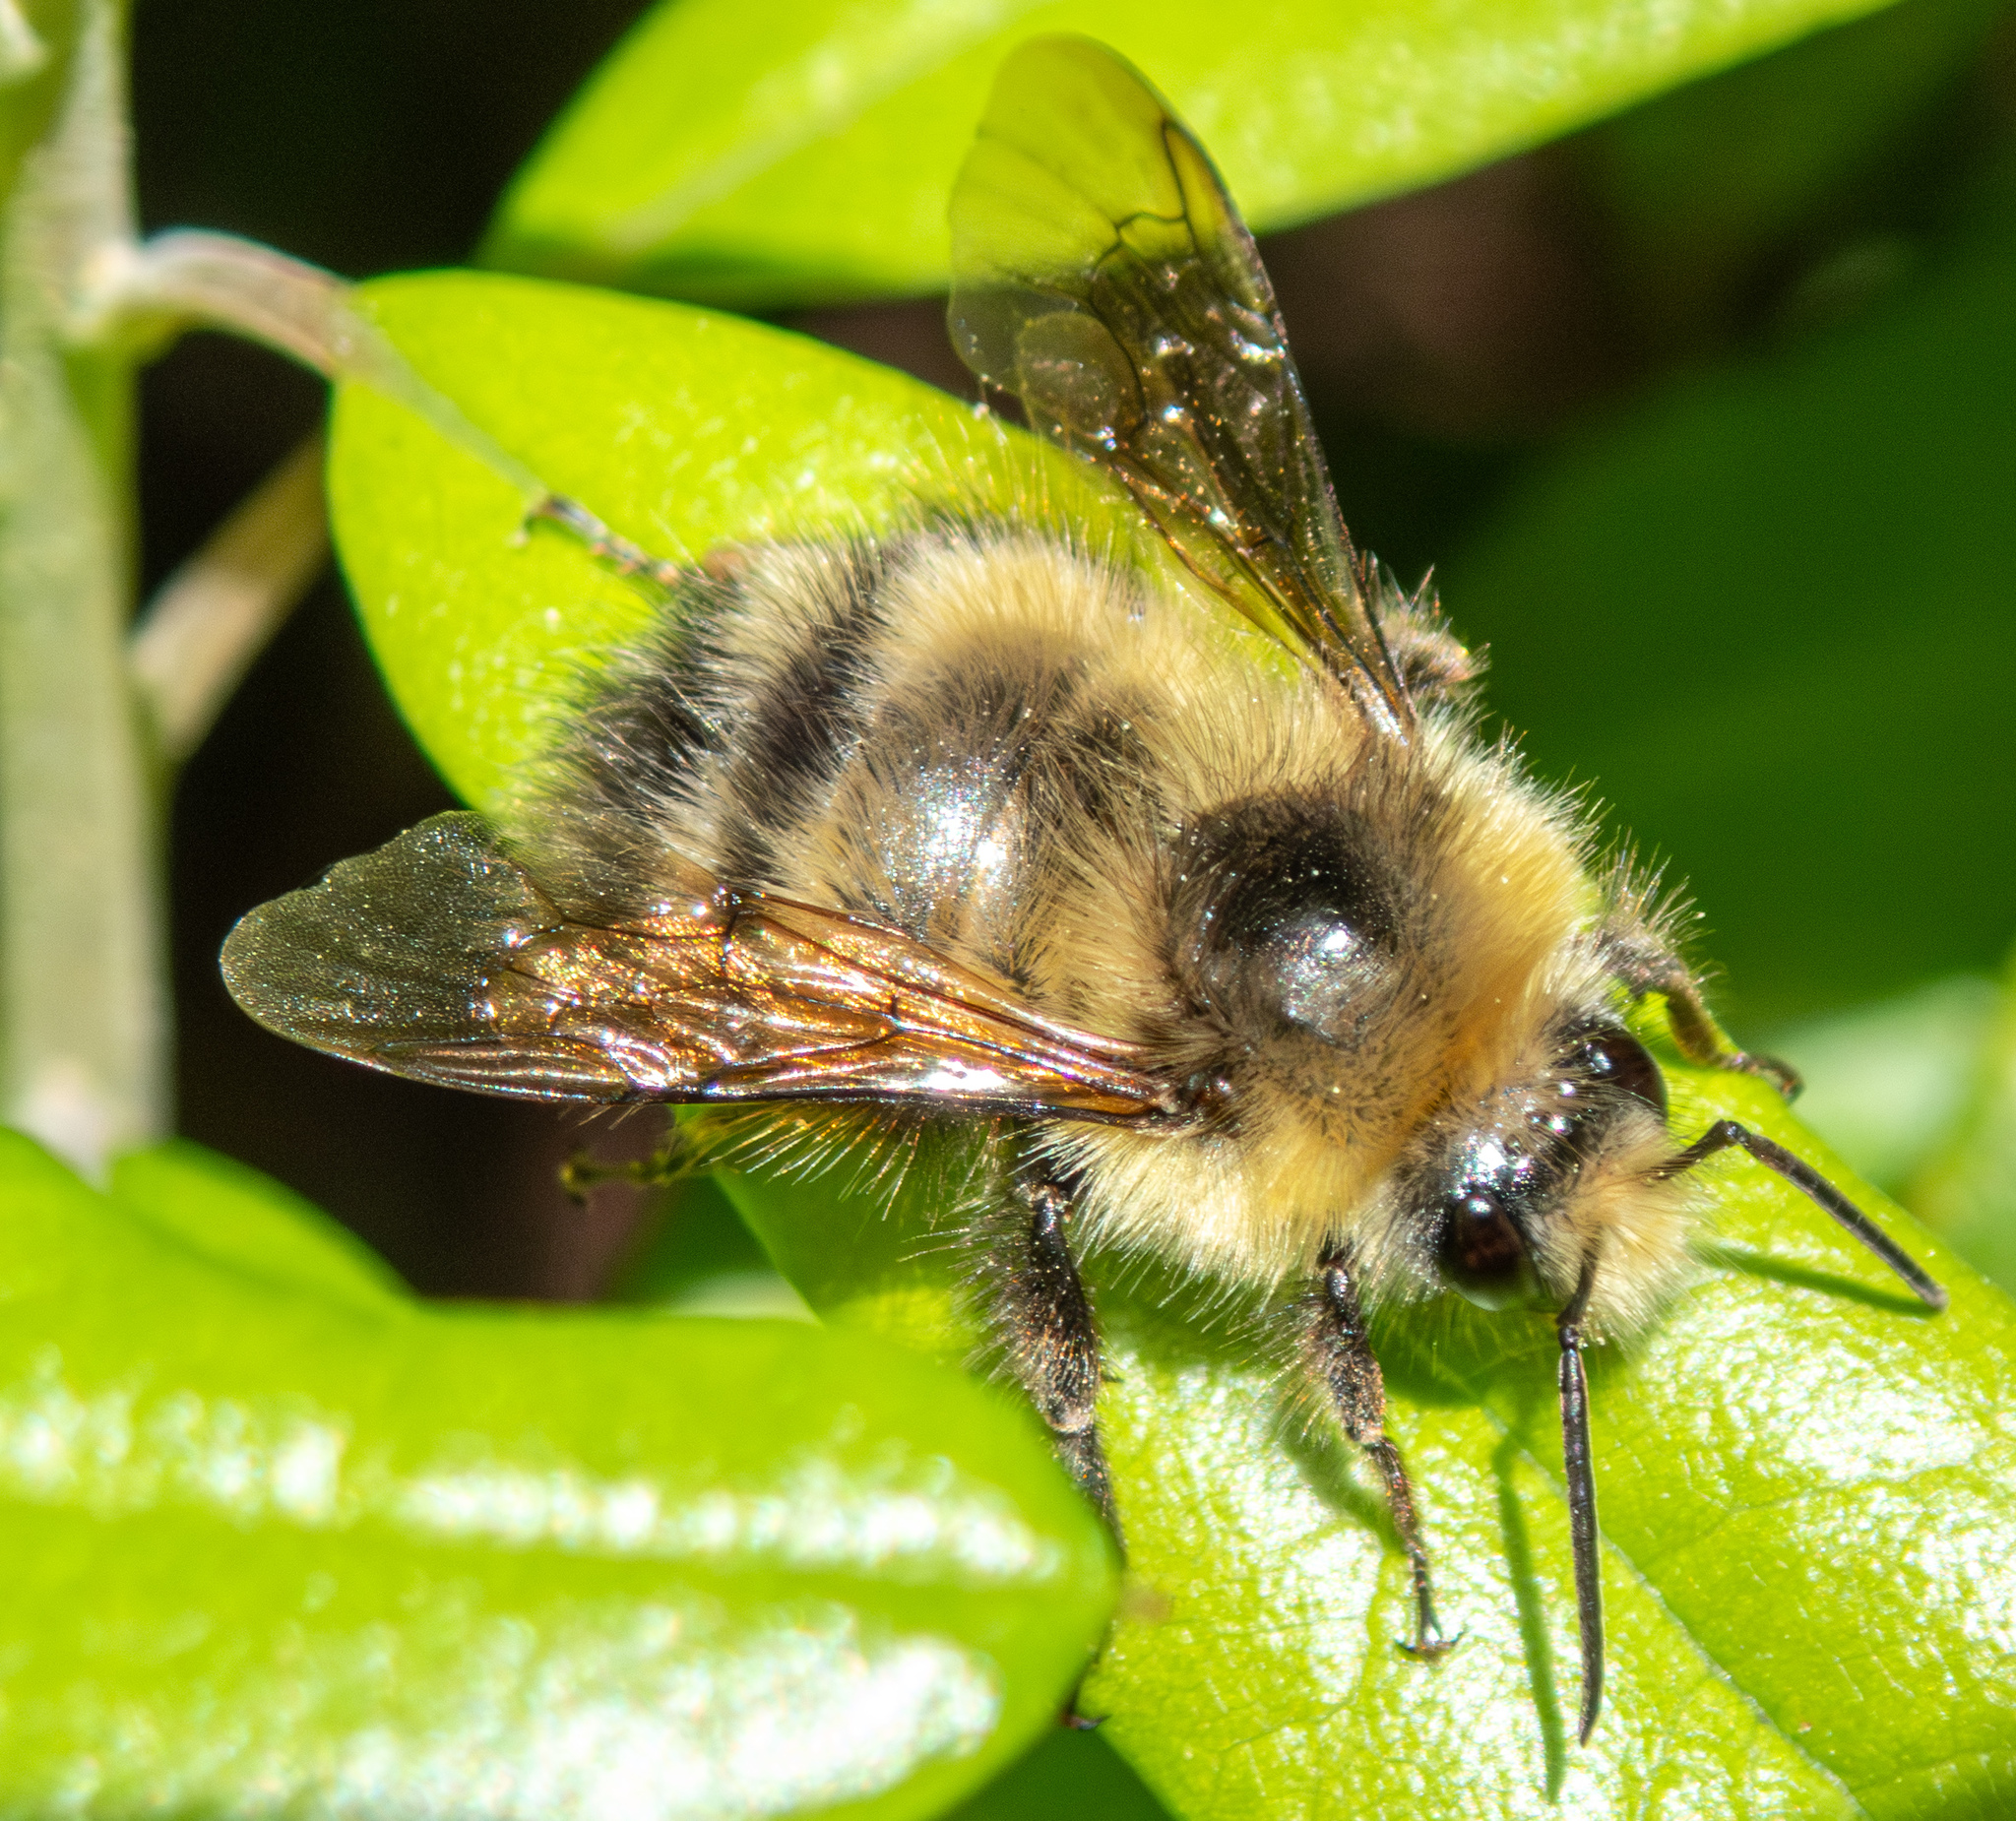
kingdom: Animalia
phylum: Arthropoda
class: Insecta
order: Hymenoptera
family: Apidae
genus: Bombus
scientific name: Bombus flavifrons
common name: Yellow head bumble bee
